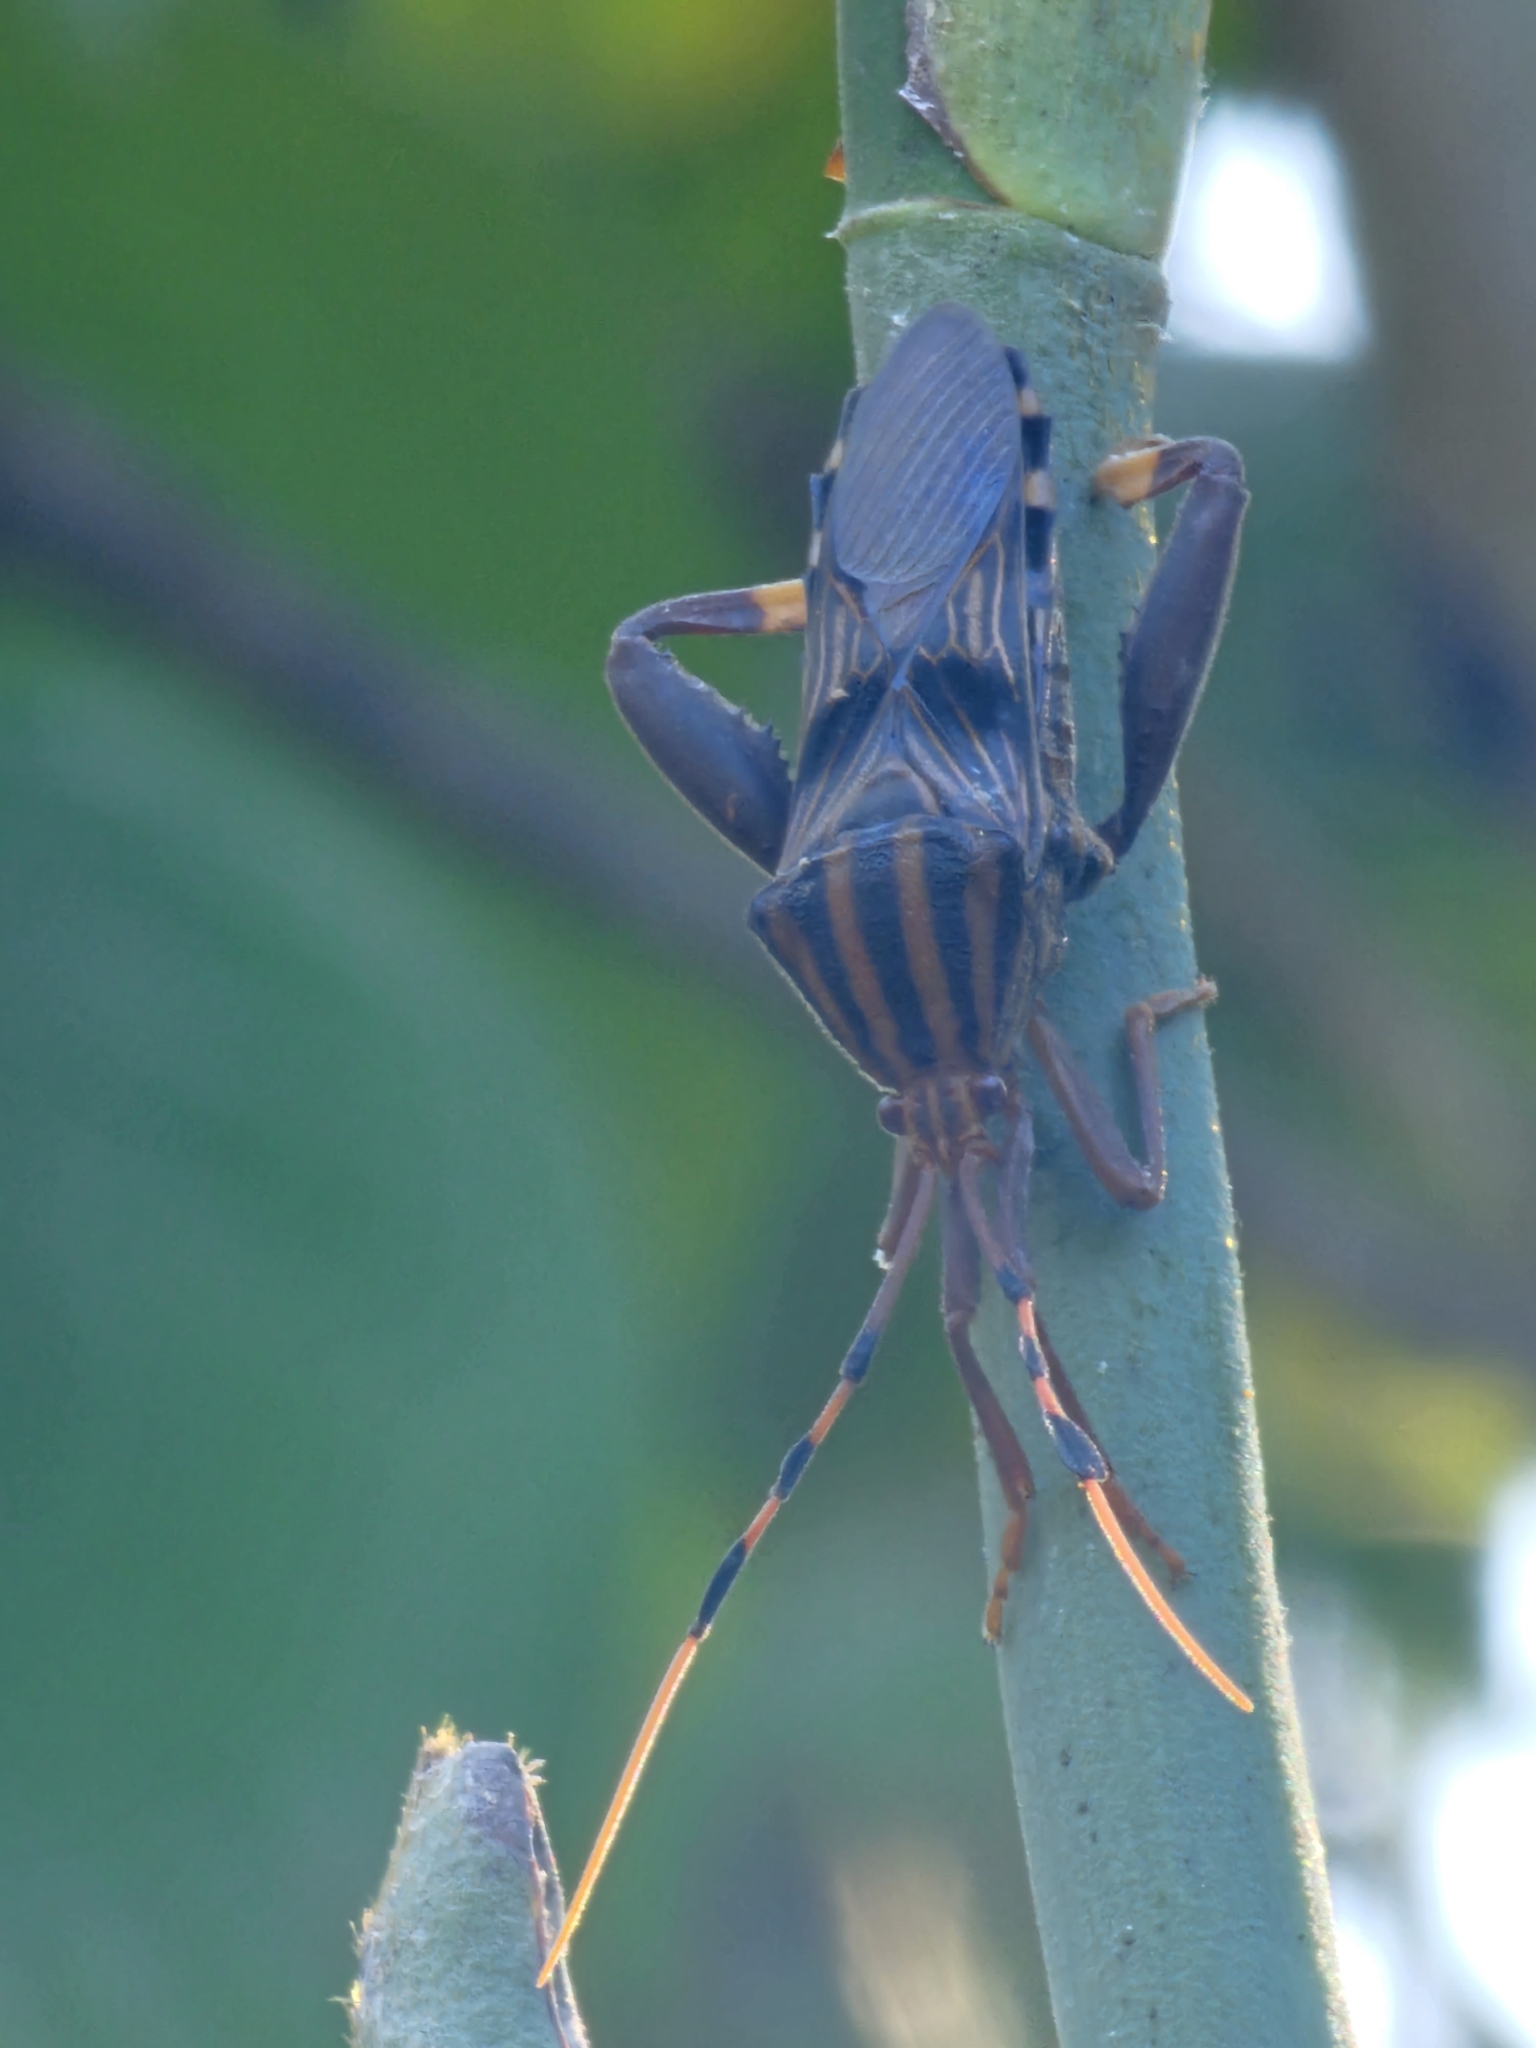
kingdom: Animalia
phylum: Arthropoda
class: Insecta
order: Hemiptera
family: Coreidae
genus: Spathophora
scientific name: Spathophora biclavata
